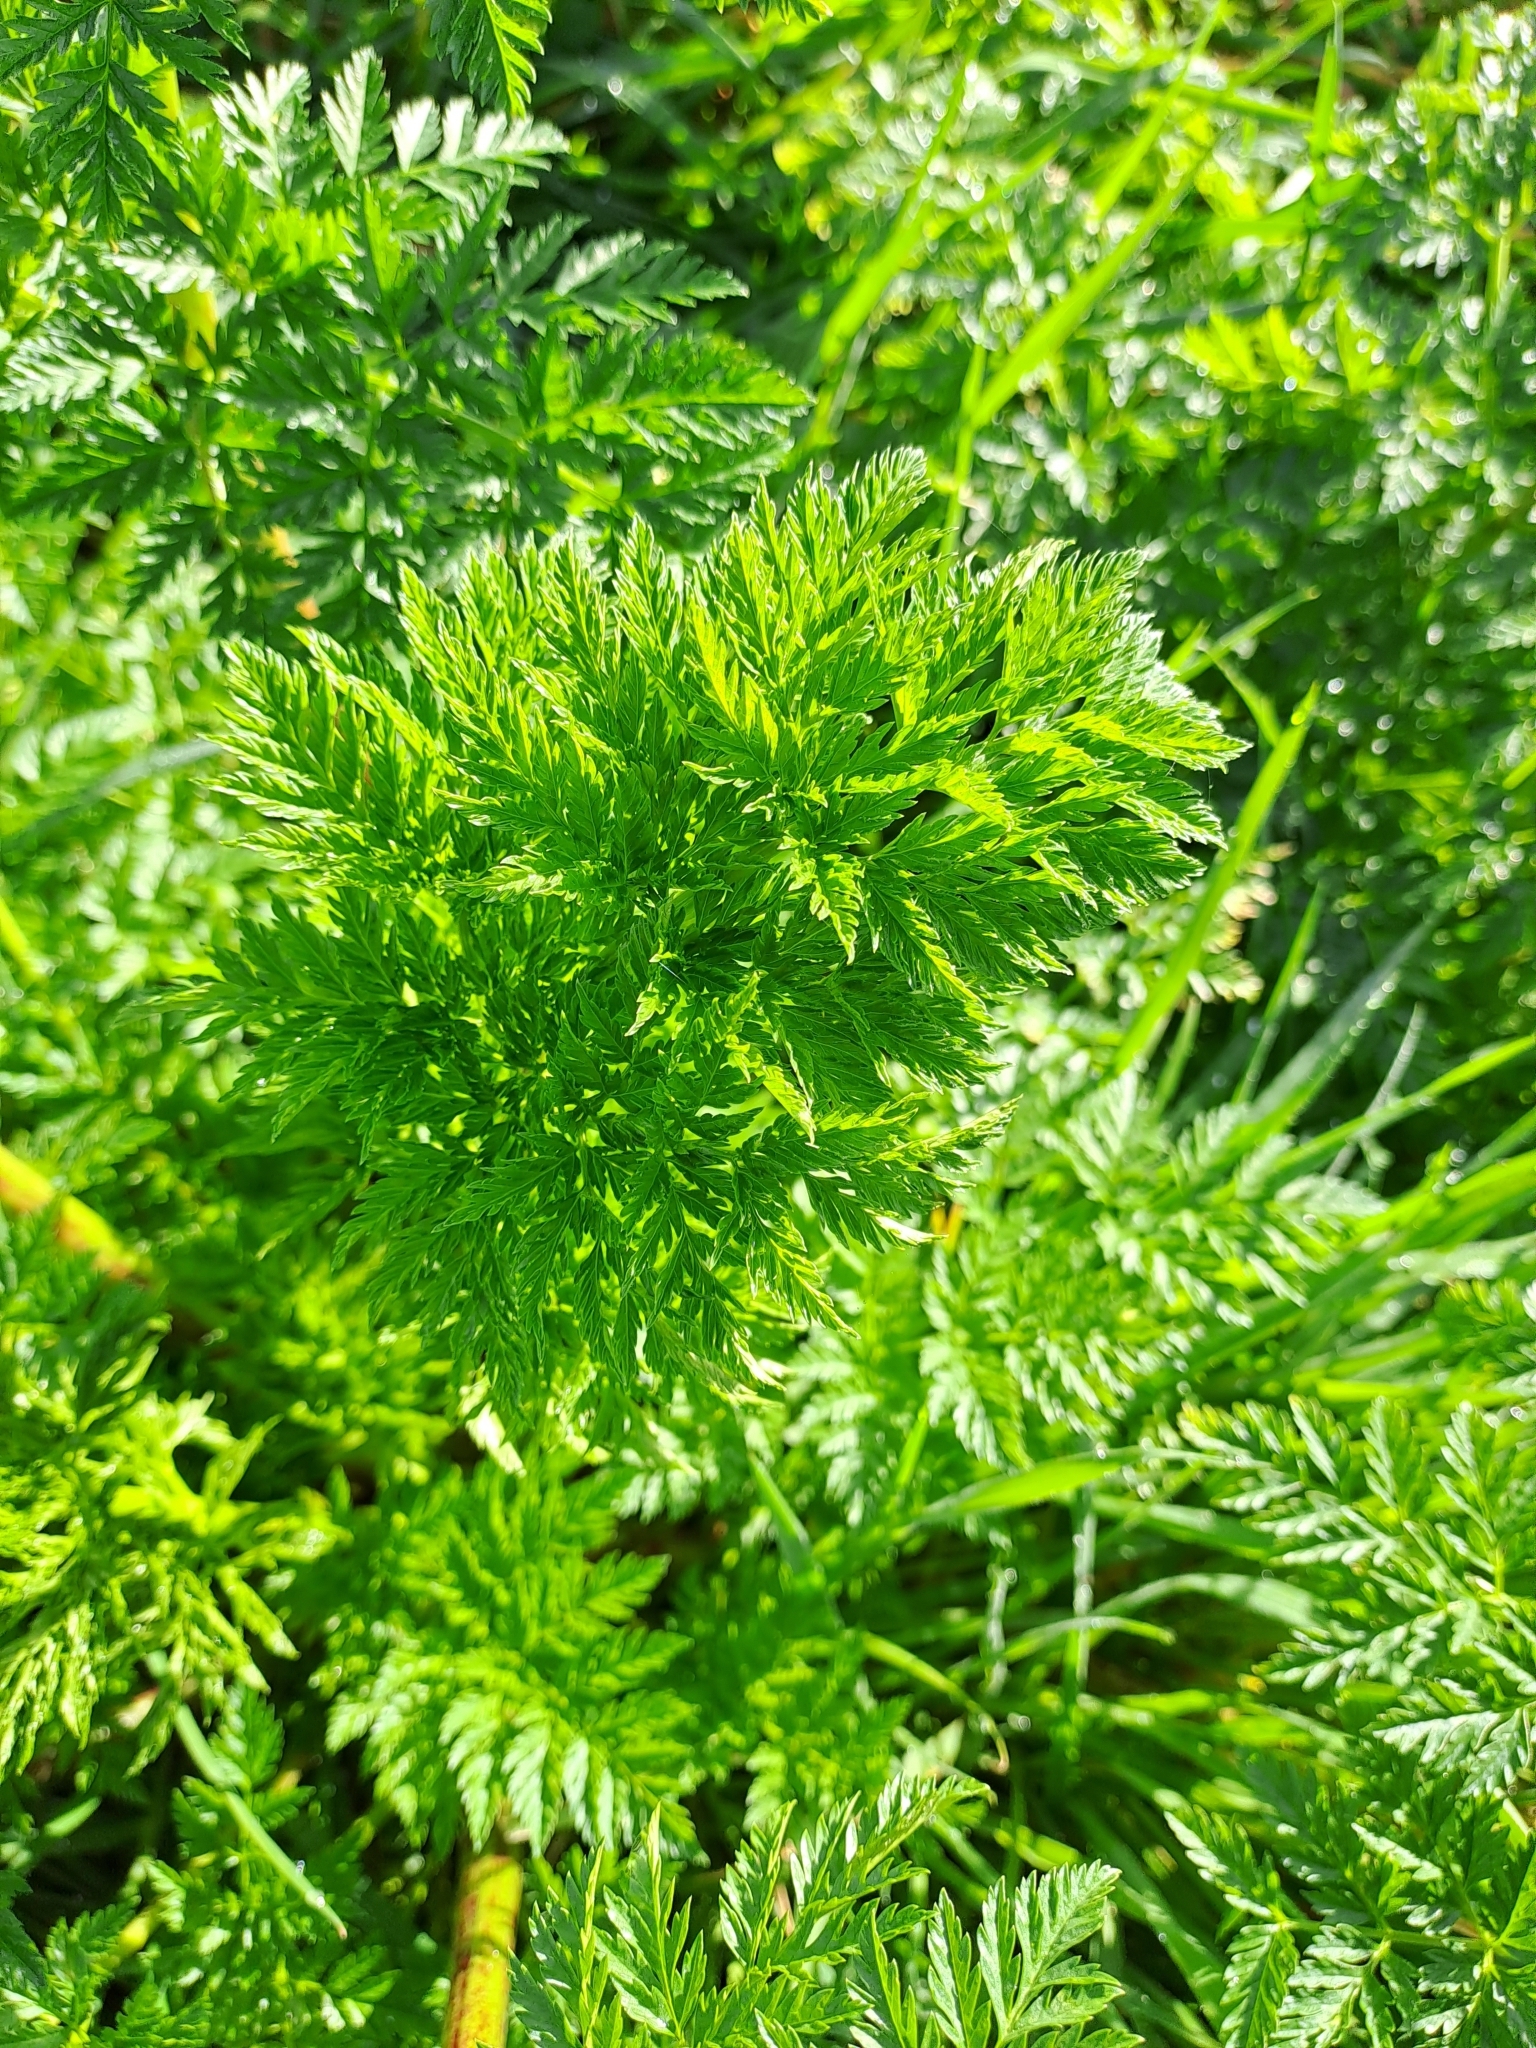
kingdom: Plantae
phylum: Tracheophyta
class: Magnoliopsida
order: Apiales
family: Apiaceae
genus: Conium
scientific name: Conium maculatum
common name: Hemlock
